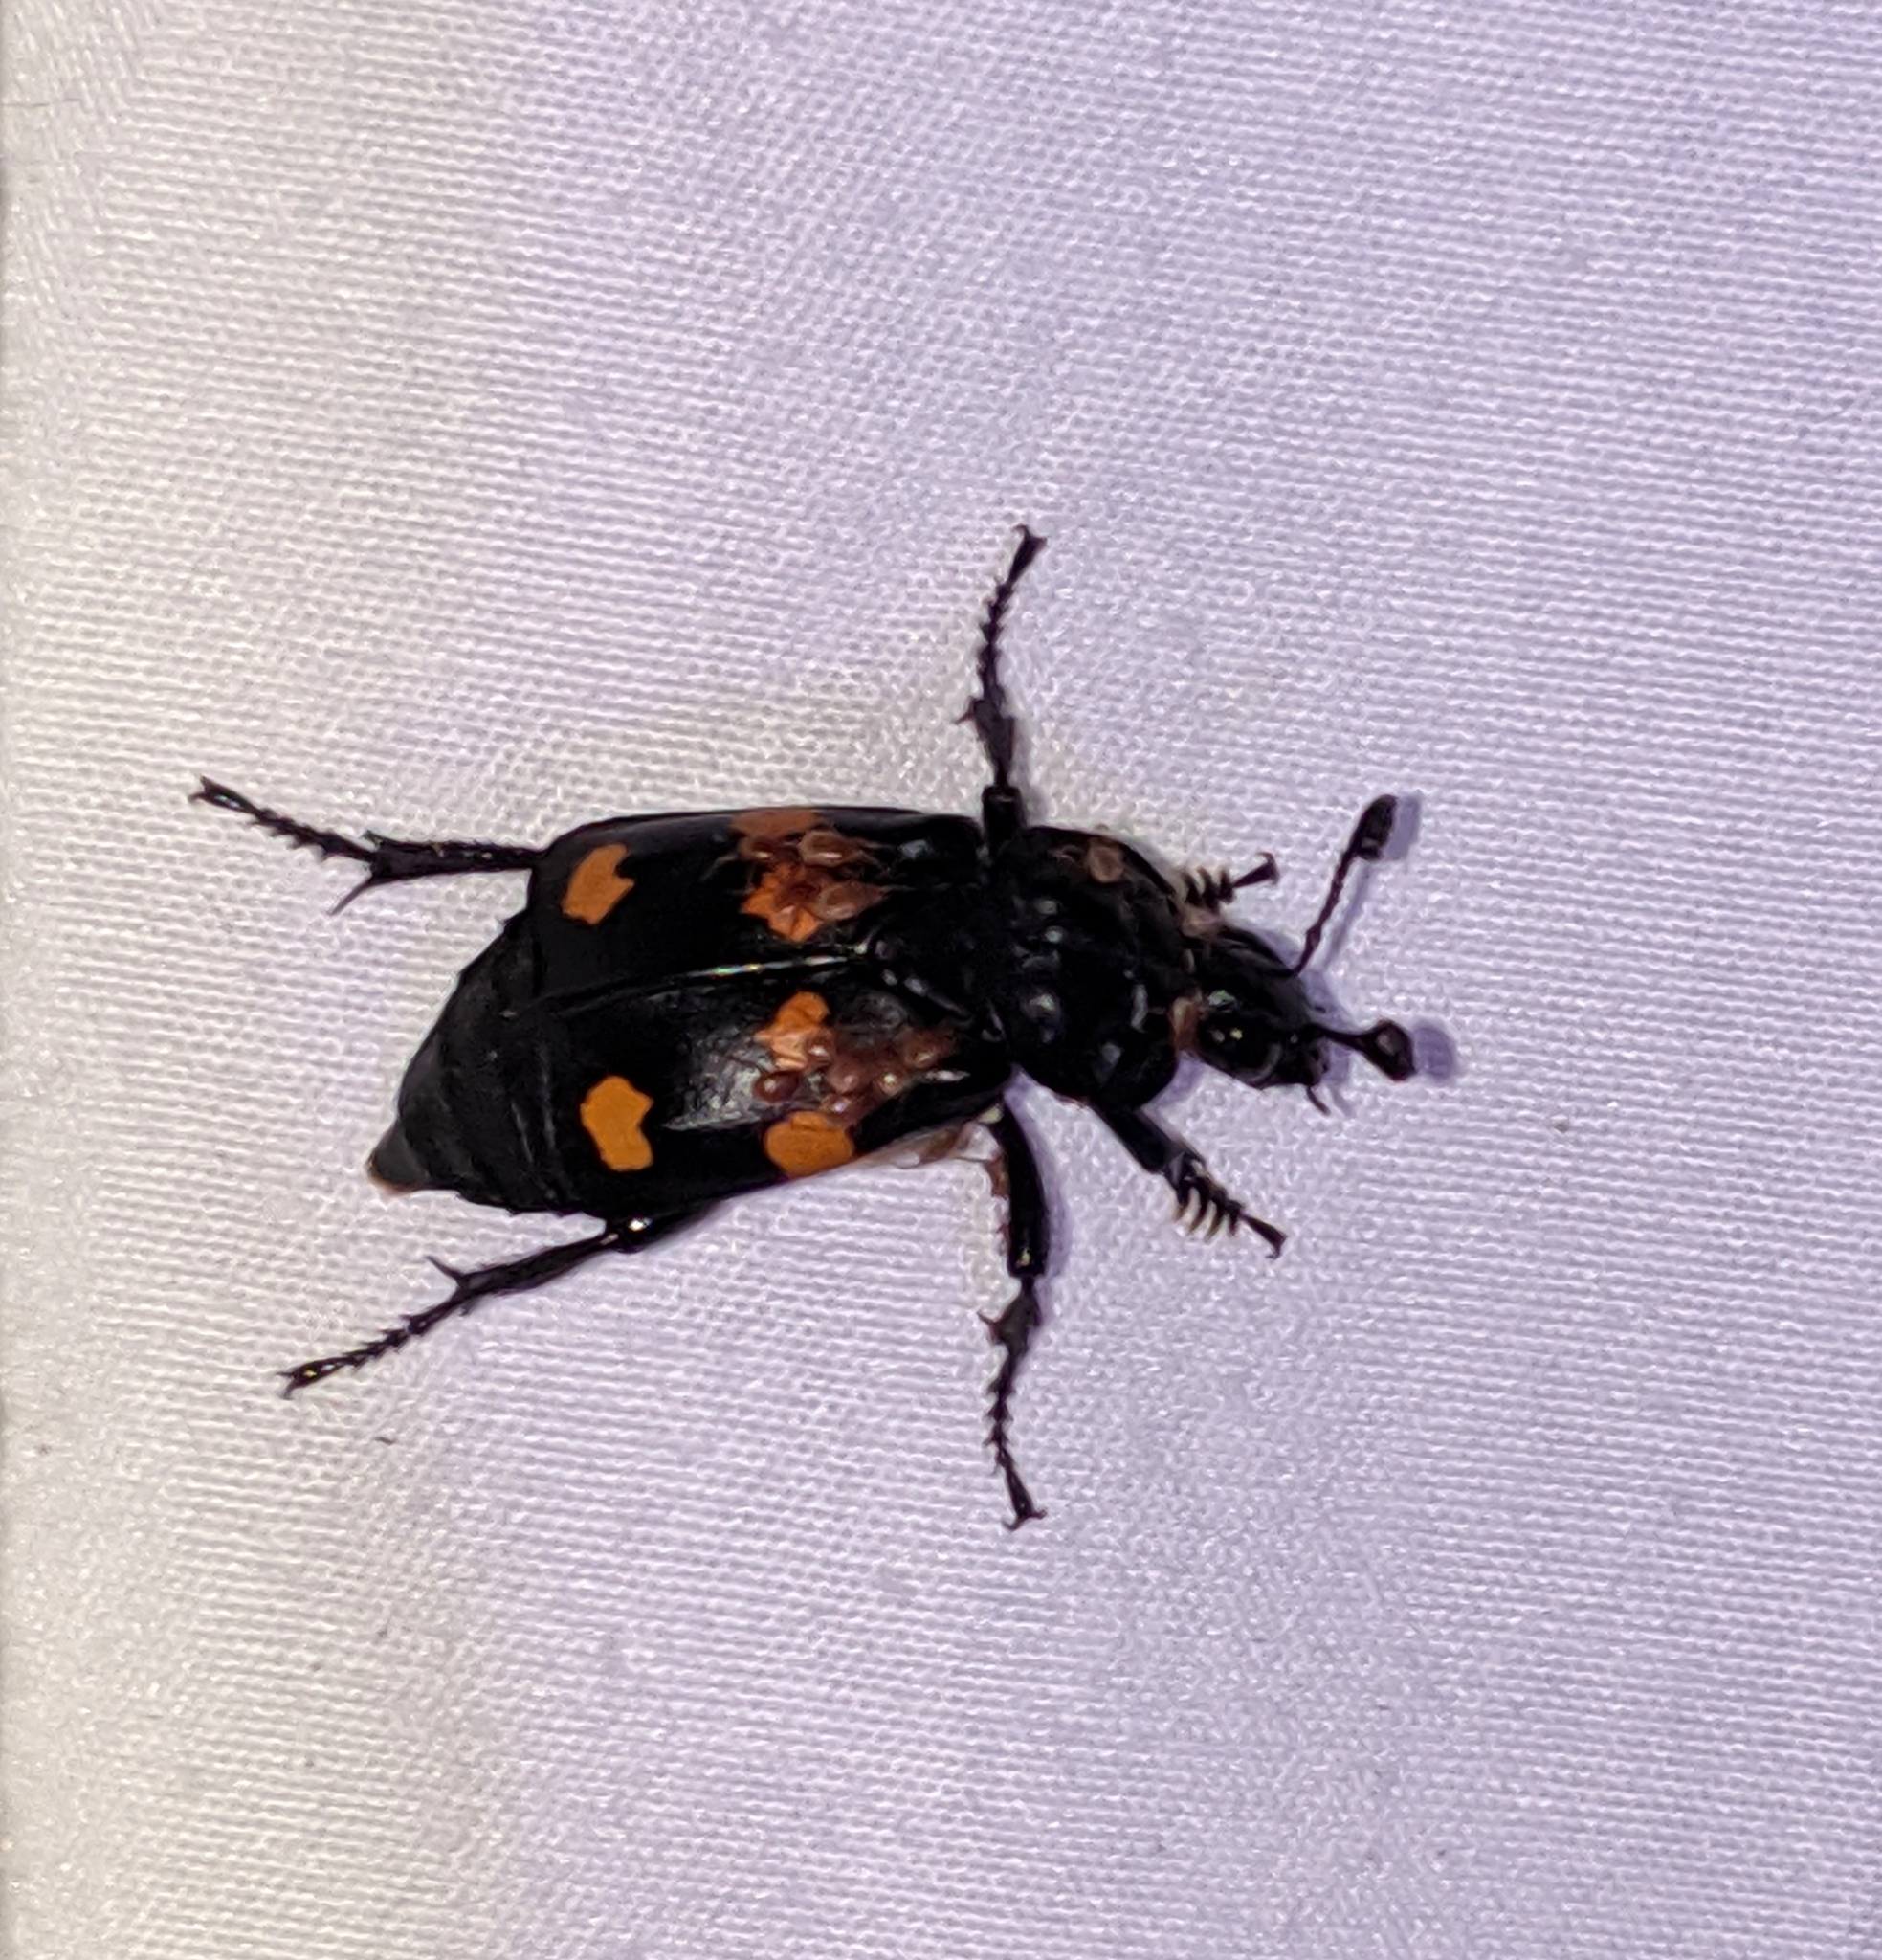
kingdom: Animalia
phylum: Arthropoda
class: Insecta
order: Coleoptera
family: Staphylinidae
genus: Nicrophorus
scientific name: Nicrophorus defodiens
